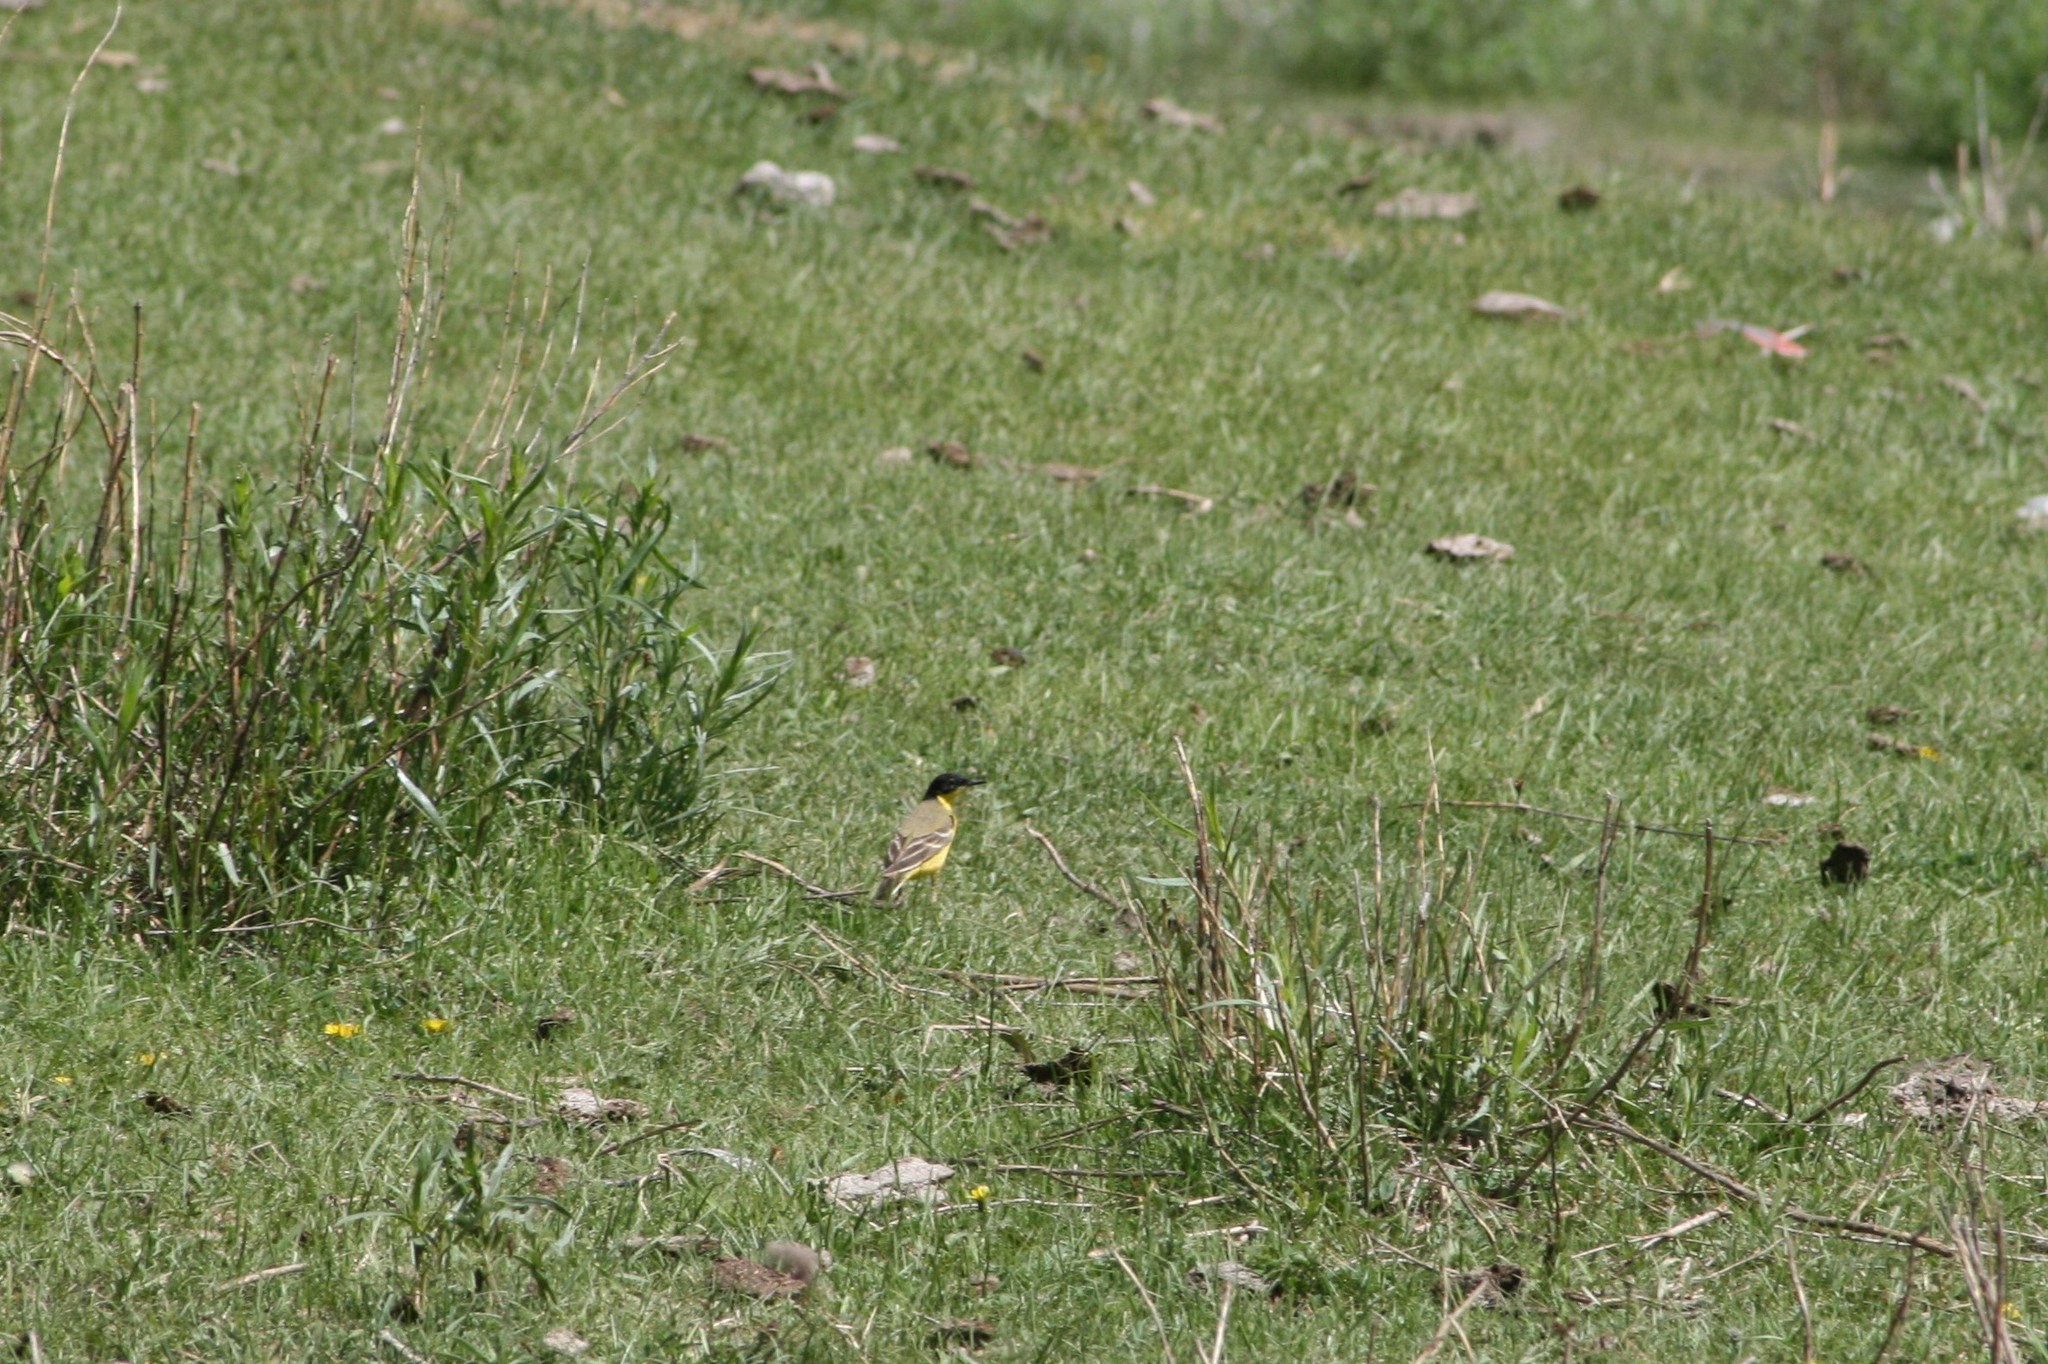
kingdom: Animalia
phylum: Chordata
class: Aves
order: Passeriformes
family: Motacillidae
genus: Motacilla
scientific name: Motacilla flava
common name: Western yellow wagtail
